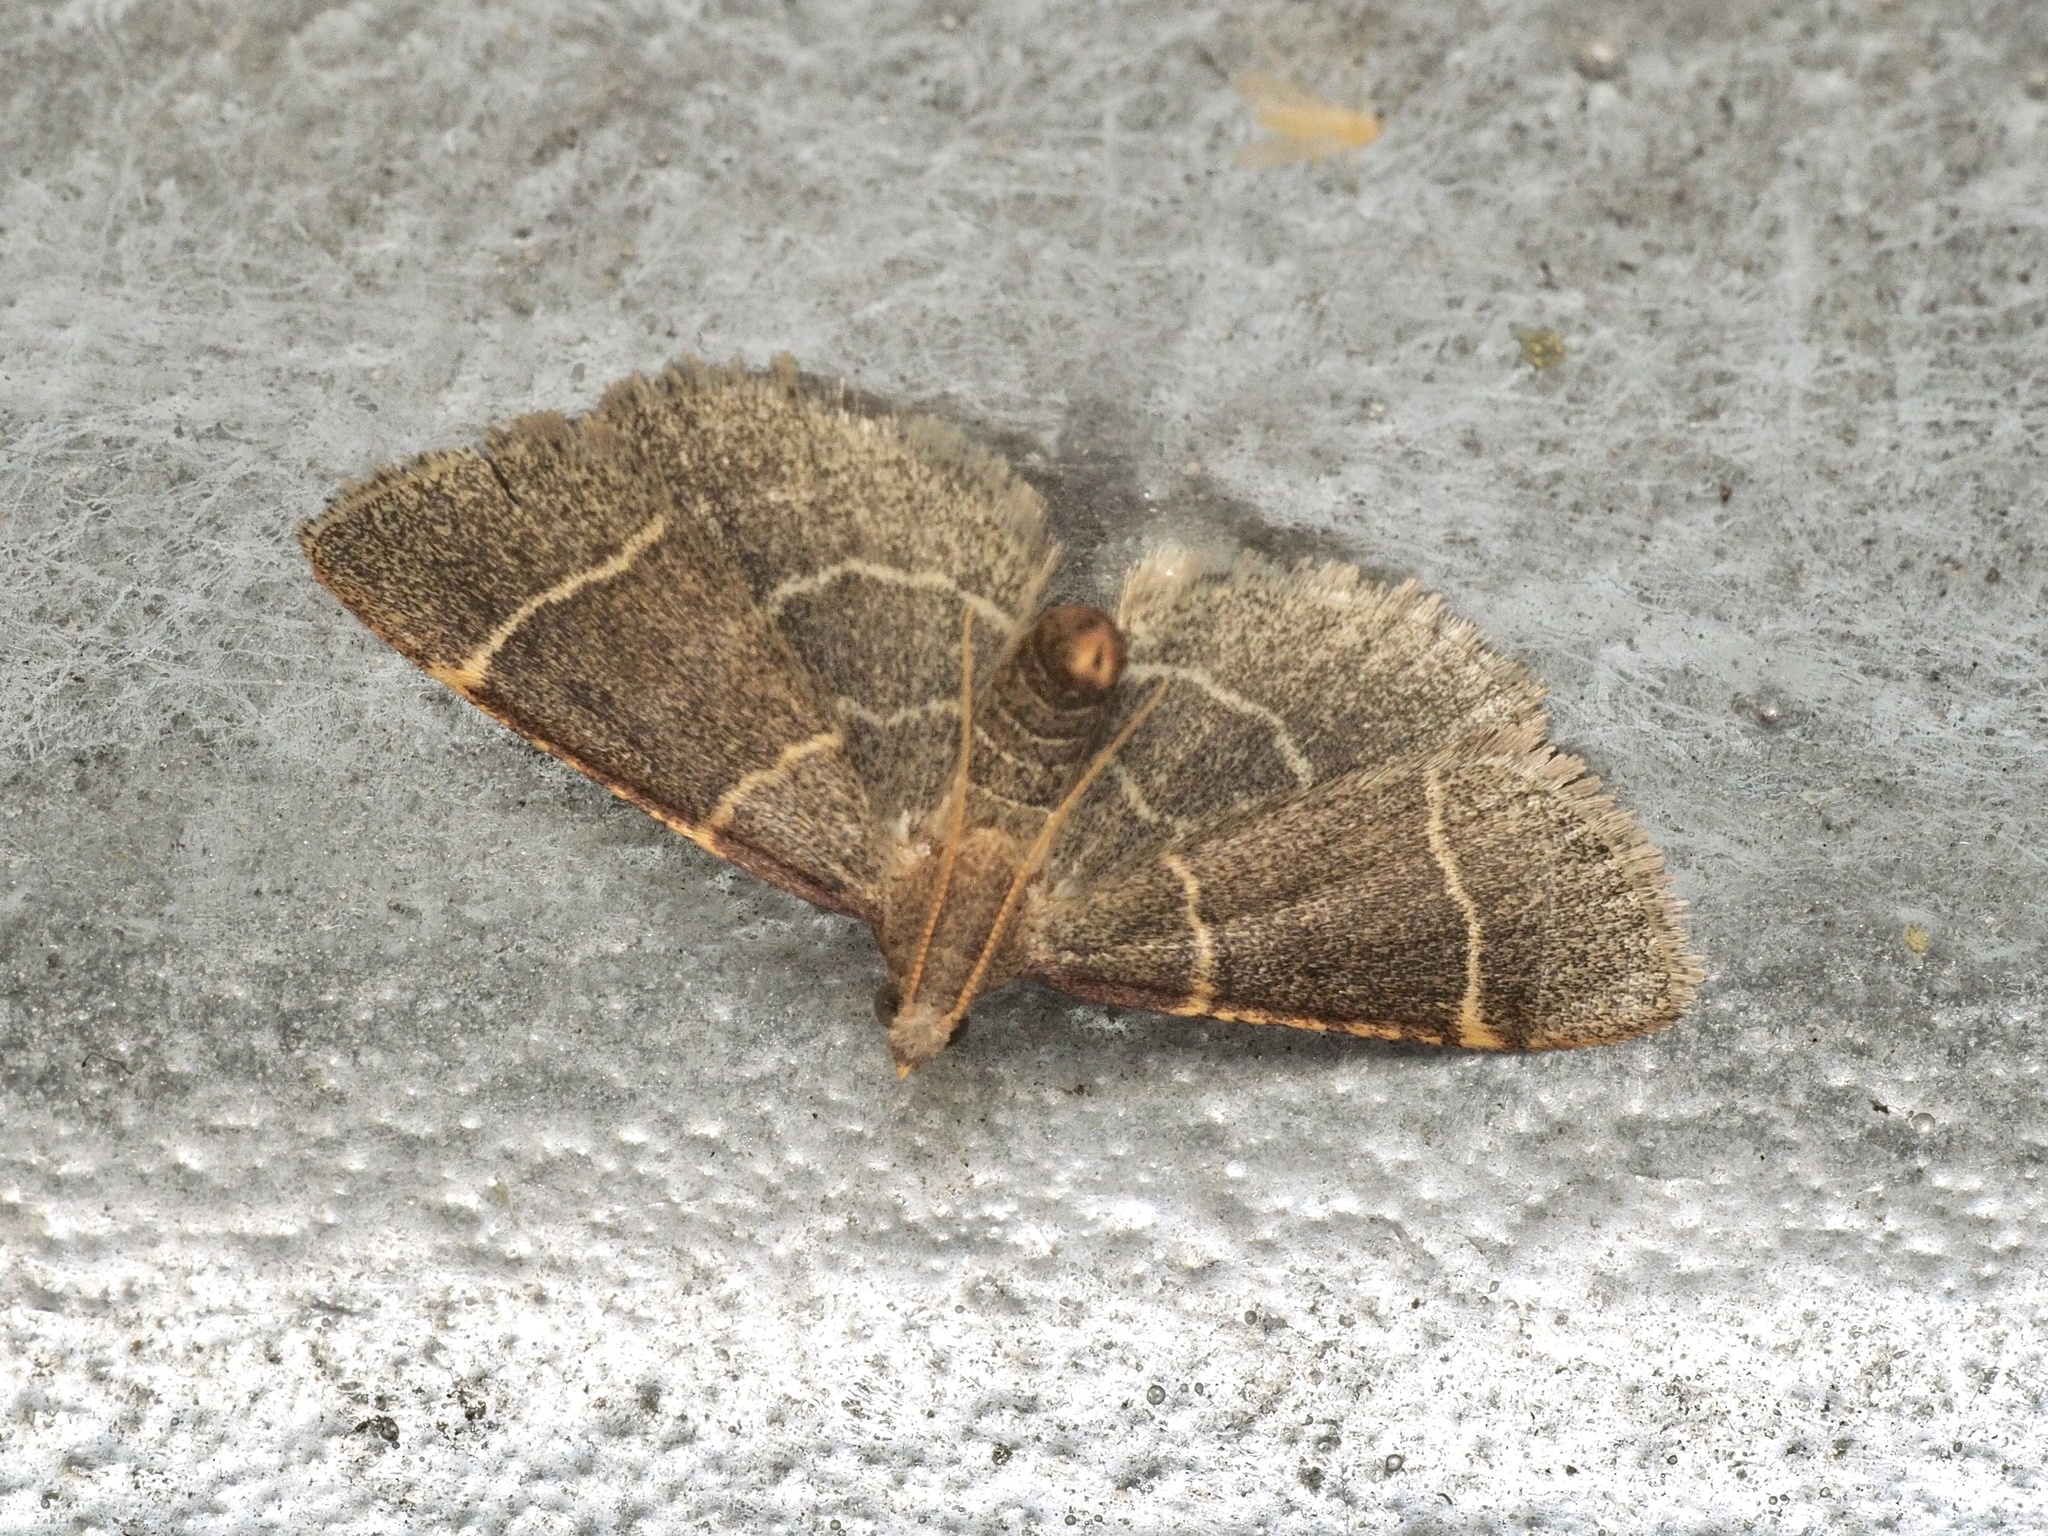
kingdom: Animalia
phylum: Arthropoda
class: Insecta
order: Lepidoptera
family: Pyralidae
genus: Hypsopygia
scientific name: Hypsopygia glaucinalis
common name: Double-striped tabby
